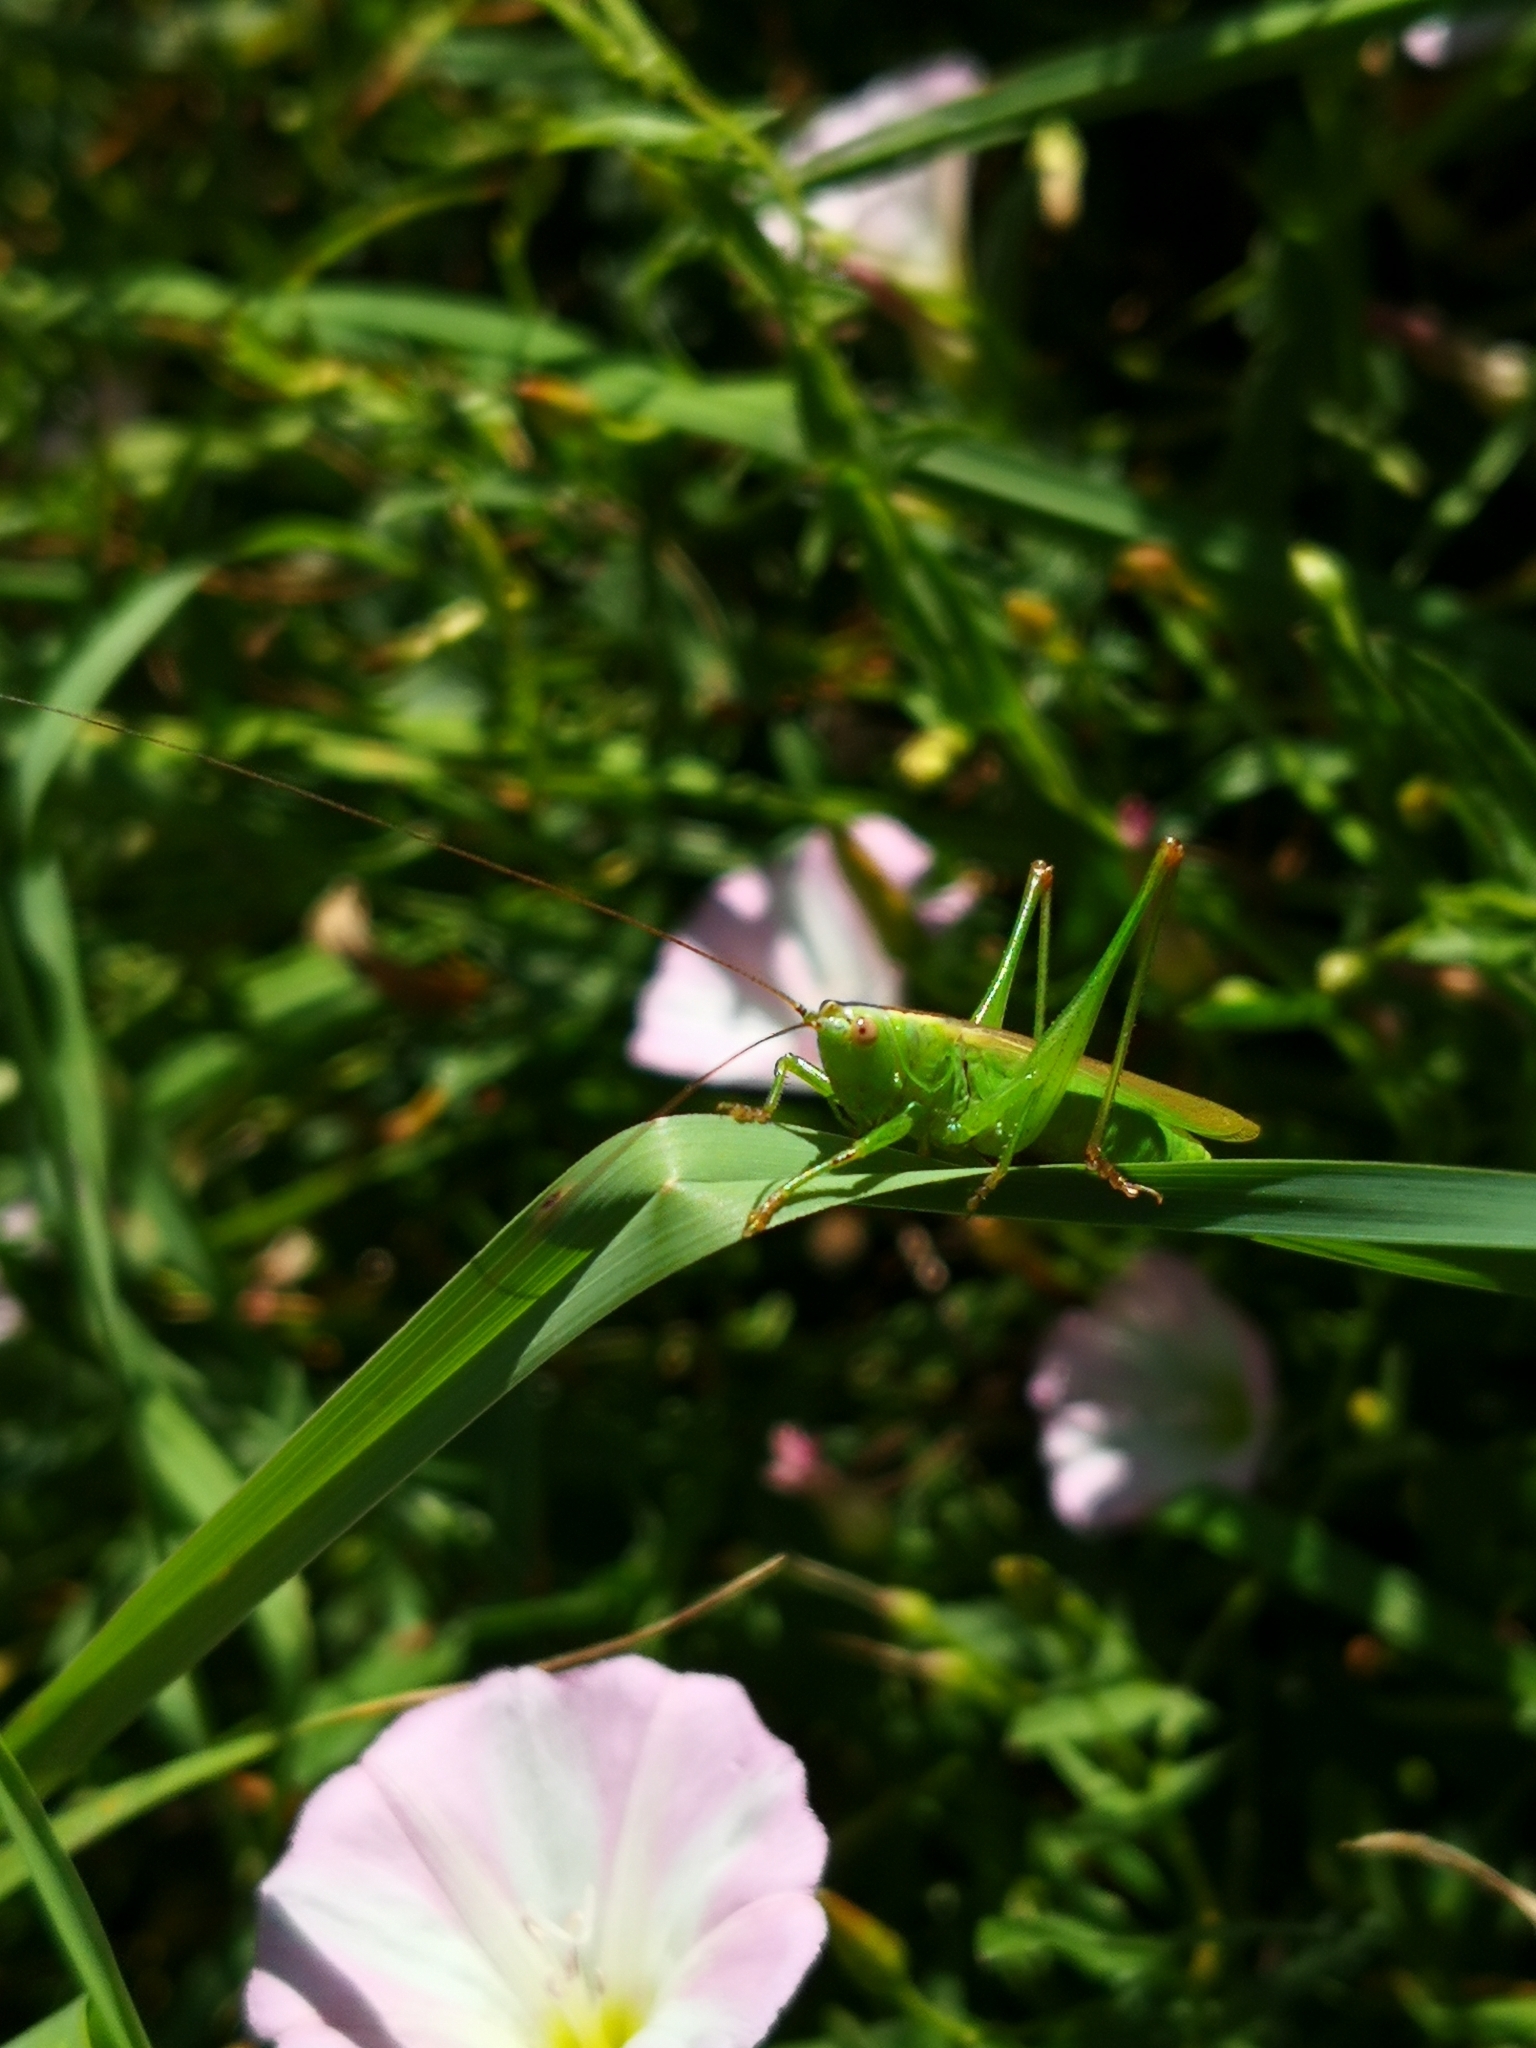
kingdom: Animalia
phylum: Arthropoda
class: Insecta
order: Orthoptera
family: Tettigoniidae
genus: Conocephalus
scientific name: Conocephalus fuscus
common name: Long-winged conehead
